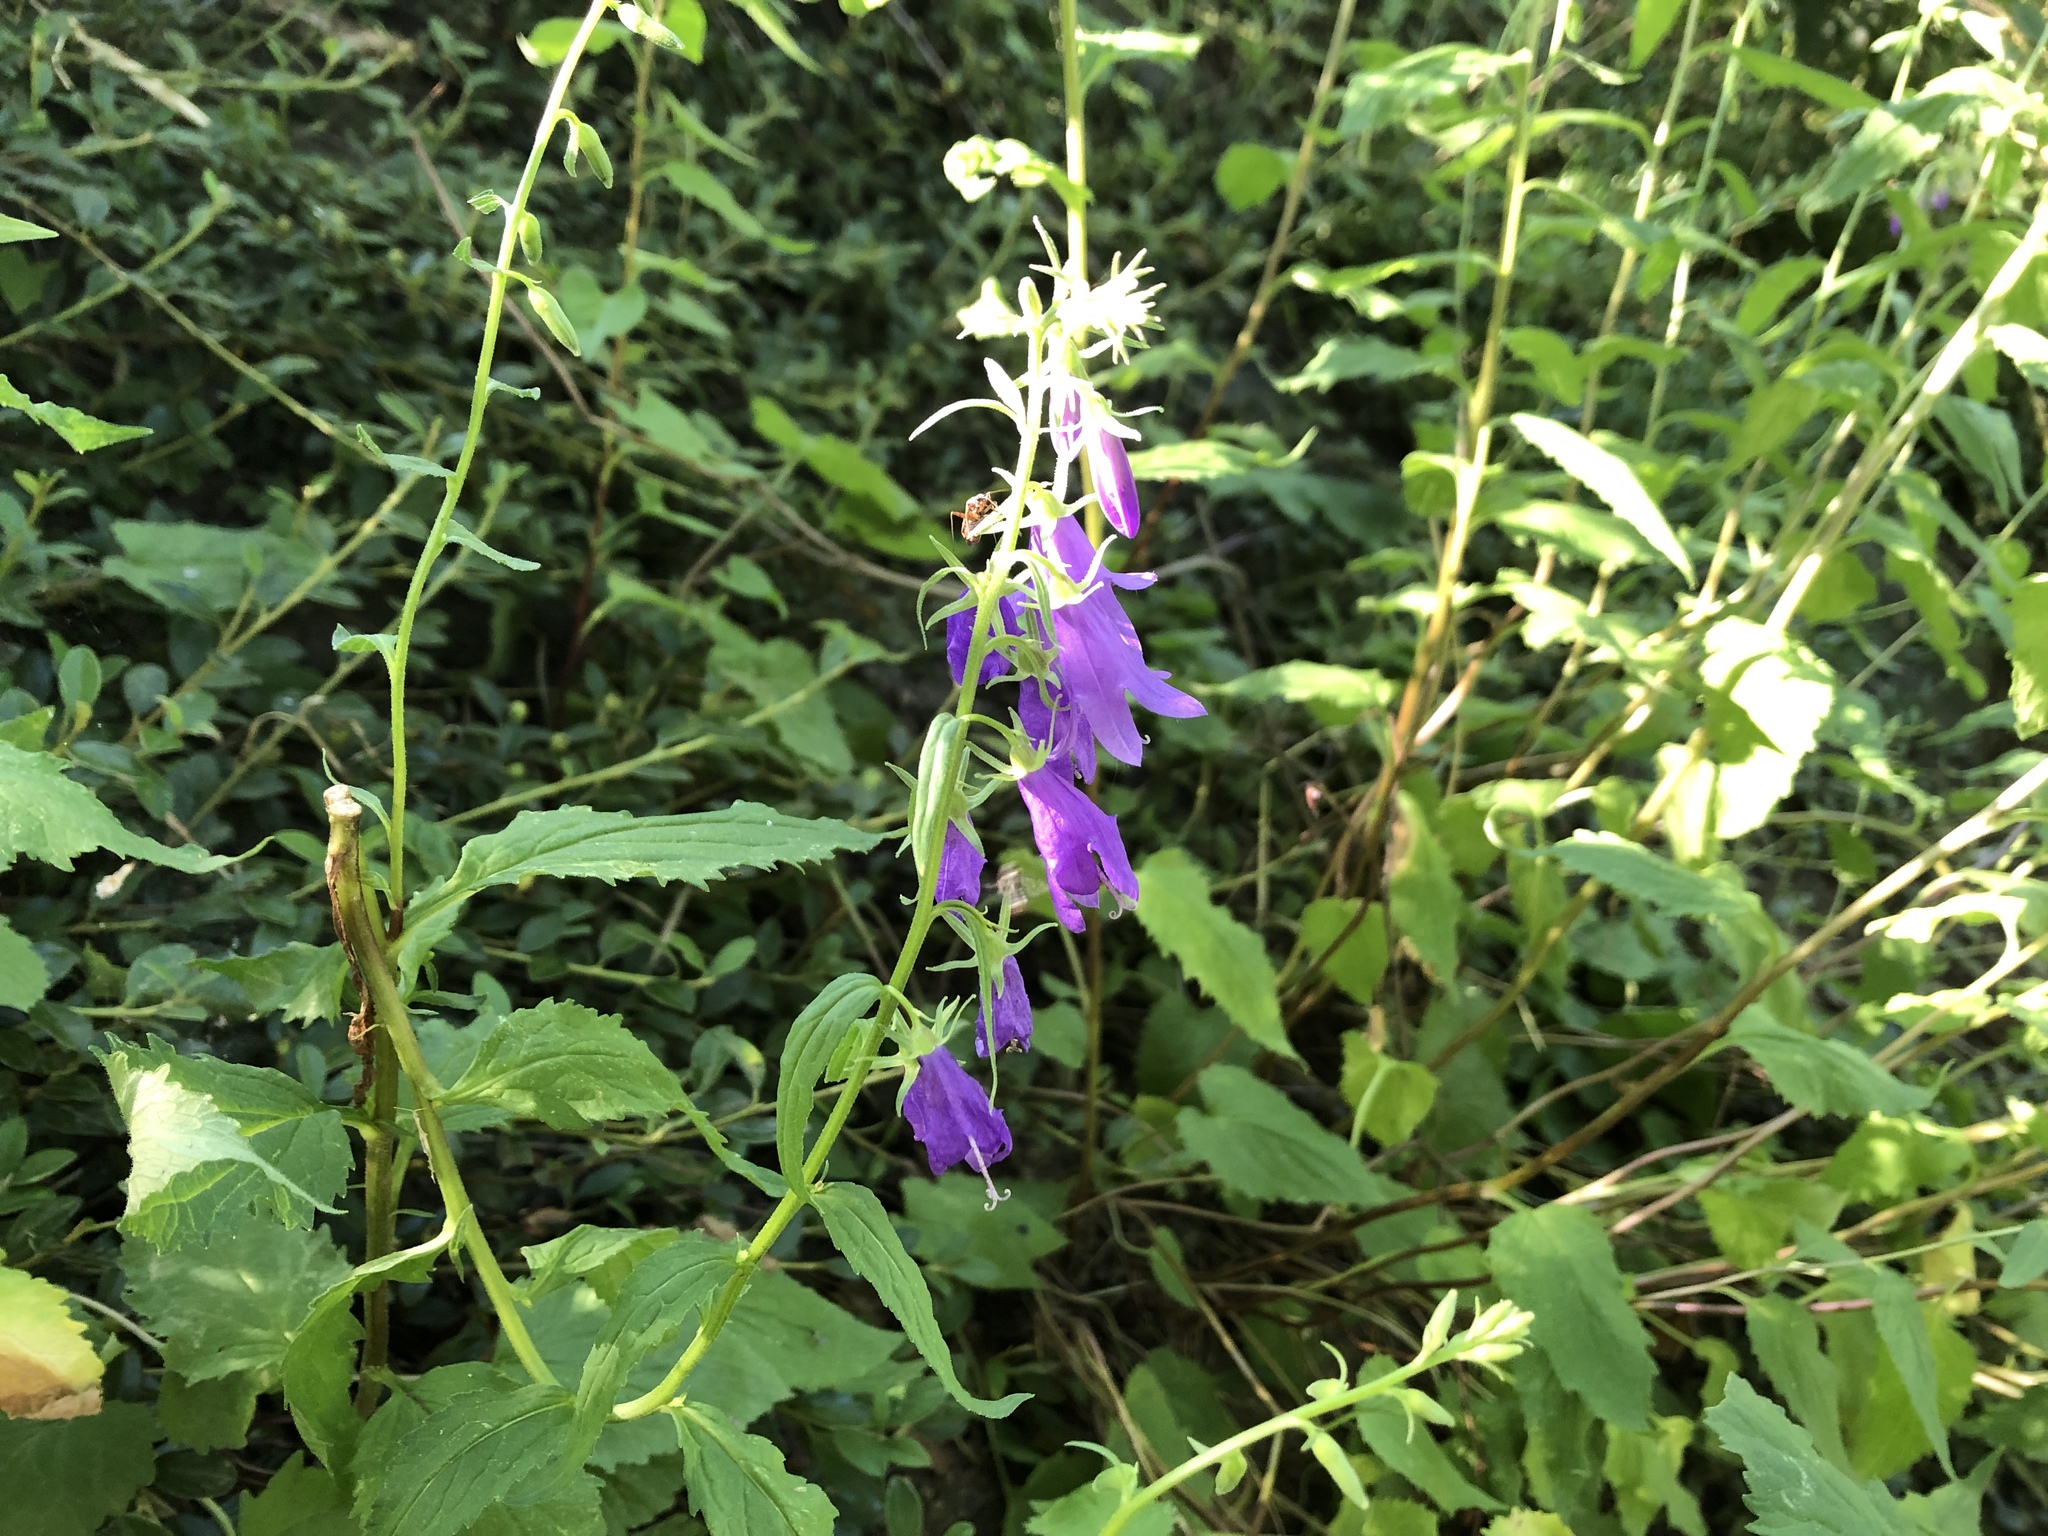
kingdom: Plantae
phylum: Tracheophyta
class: Magnoliopsida
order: Asterales
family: Campanulaceae
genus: Campanula
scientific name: Campanula rapunculoides
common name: Creeping bellflower
